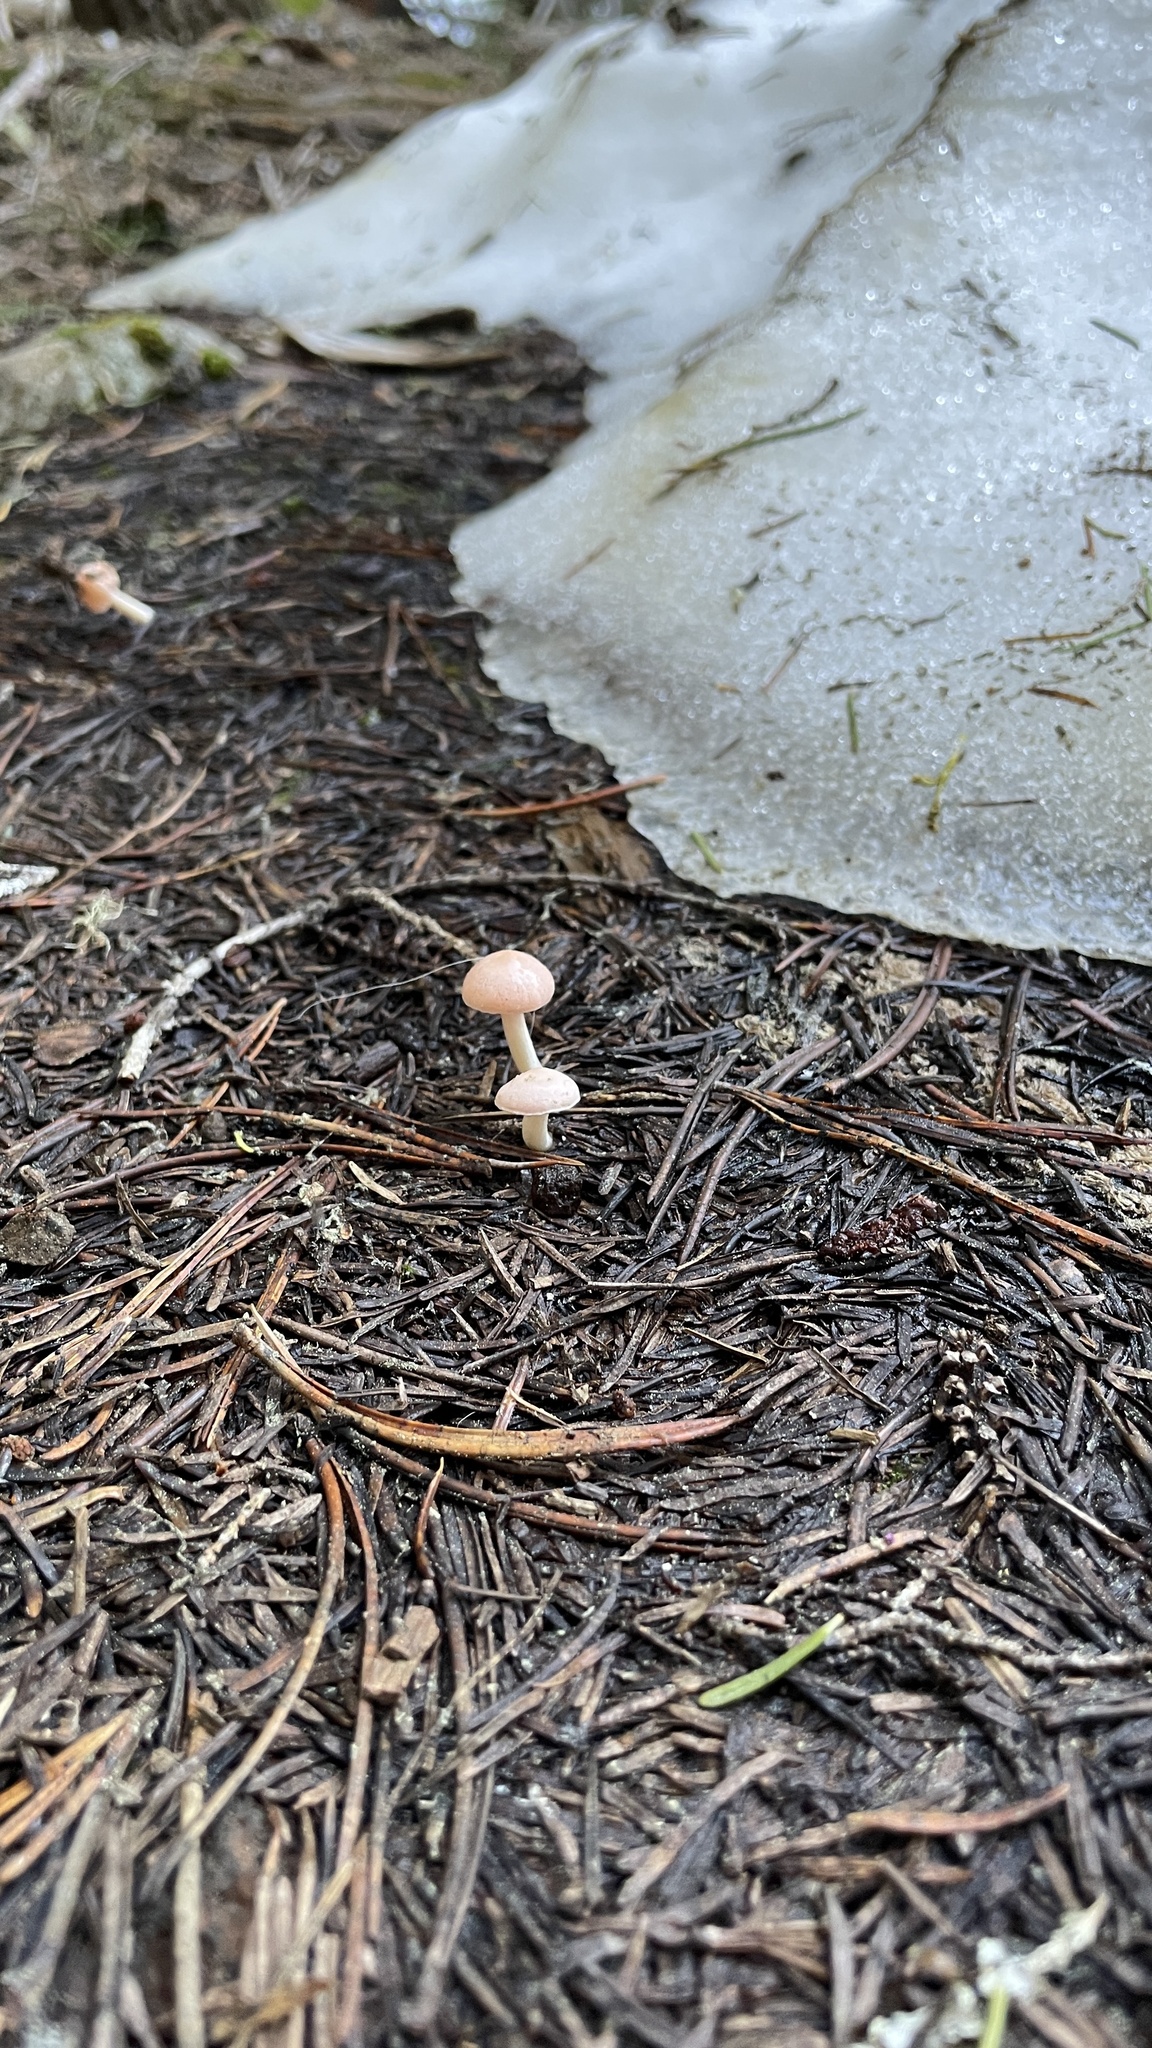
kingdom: Fungi
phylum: Basidiomycota
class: Agaricomycetes
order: Agaricales
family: Hygrophoraceae
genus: Hygrophorus
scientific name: Hygrophorus goetzei
